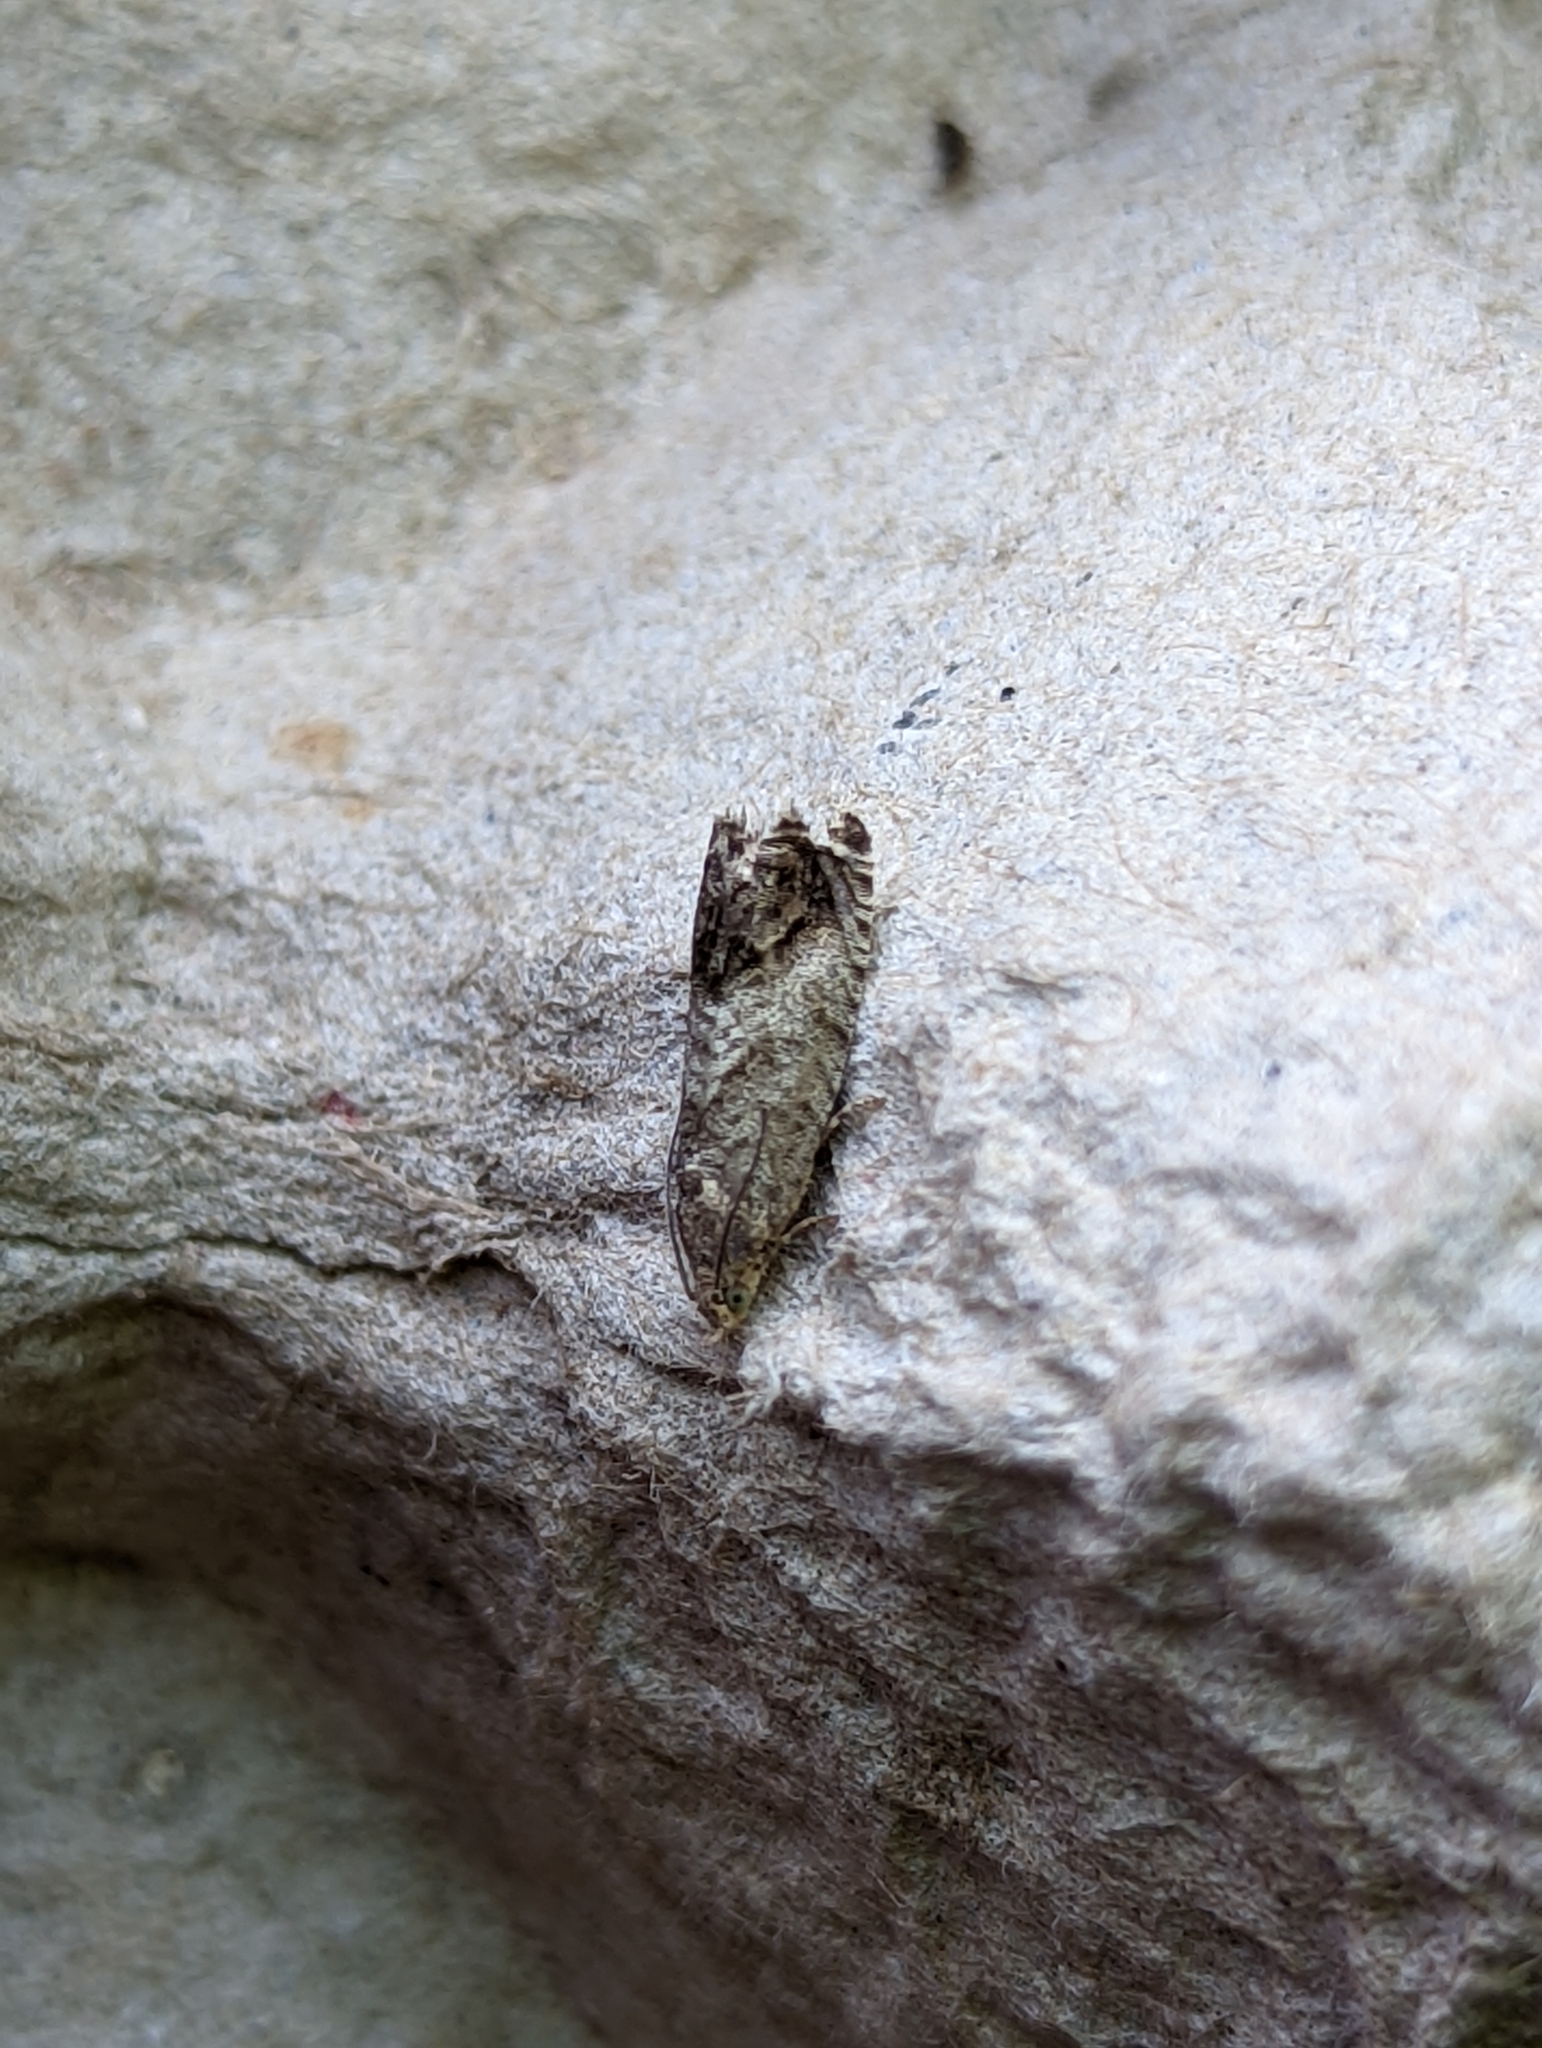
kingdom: Animalia
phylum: Arthropoda
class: Insecta
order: Lepidoptera
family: Tortricidae
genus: Cydia
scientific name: Cydia splendana
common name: De: kastanienwickler, eichenwickler es: oruga de la castaña fr: carpocapse des châtaignes it: cidia o tortrice tardiva delle castagne pt: bichado das castanhas gb: acorn moth, chestnut fruit tortrix
